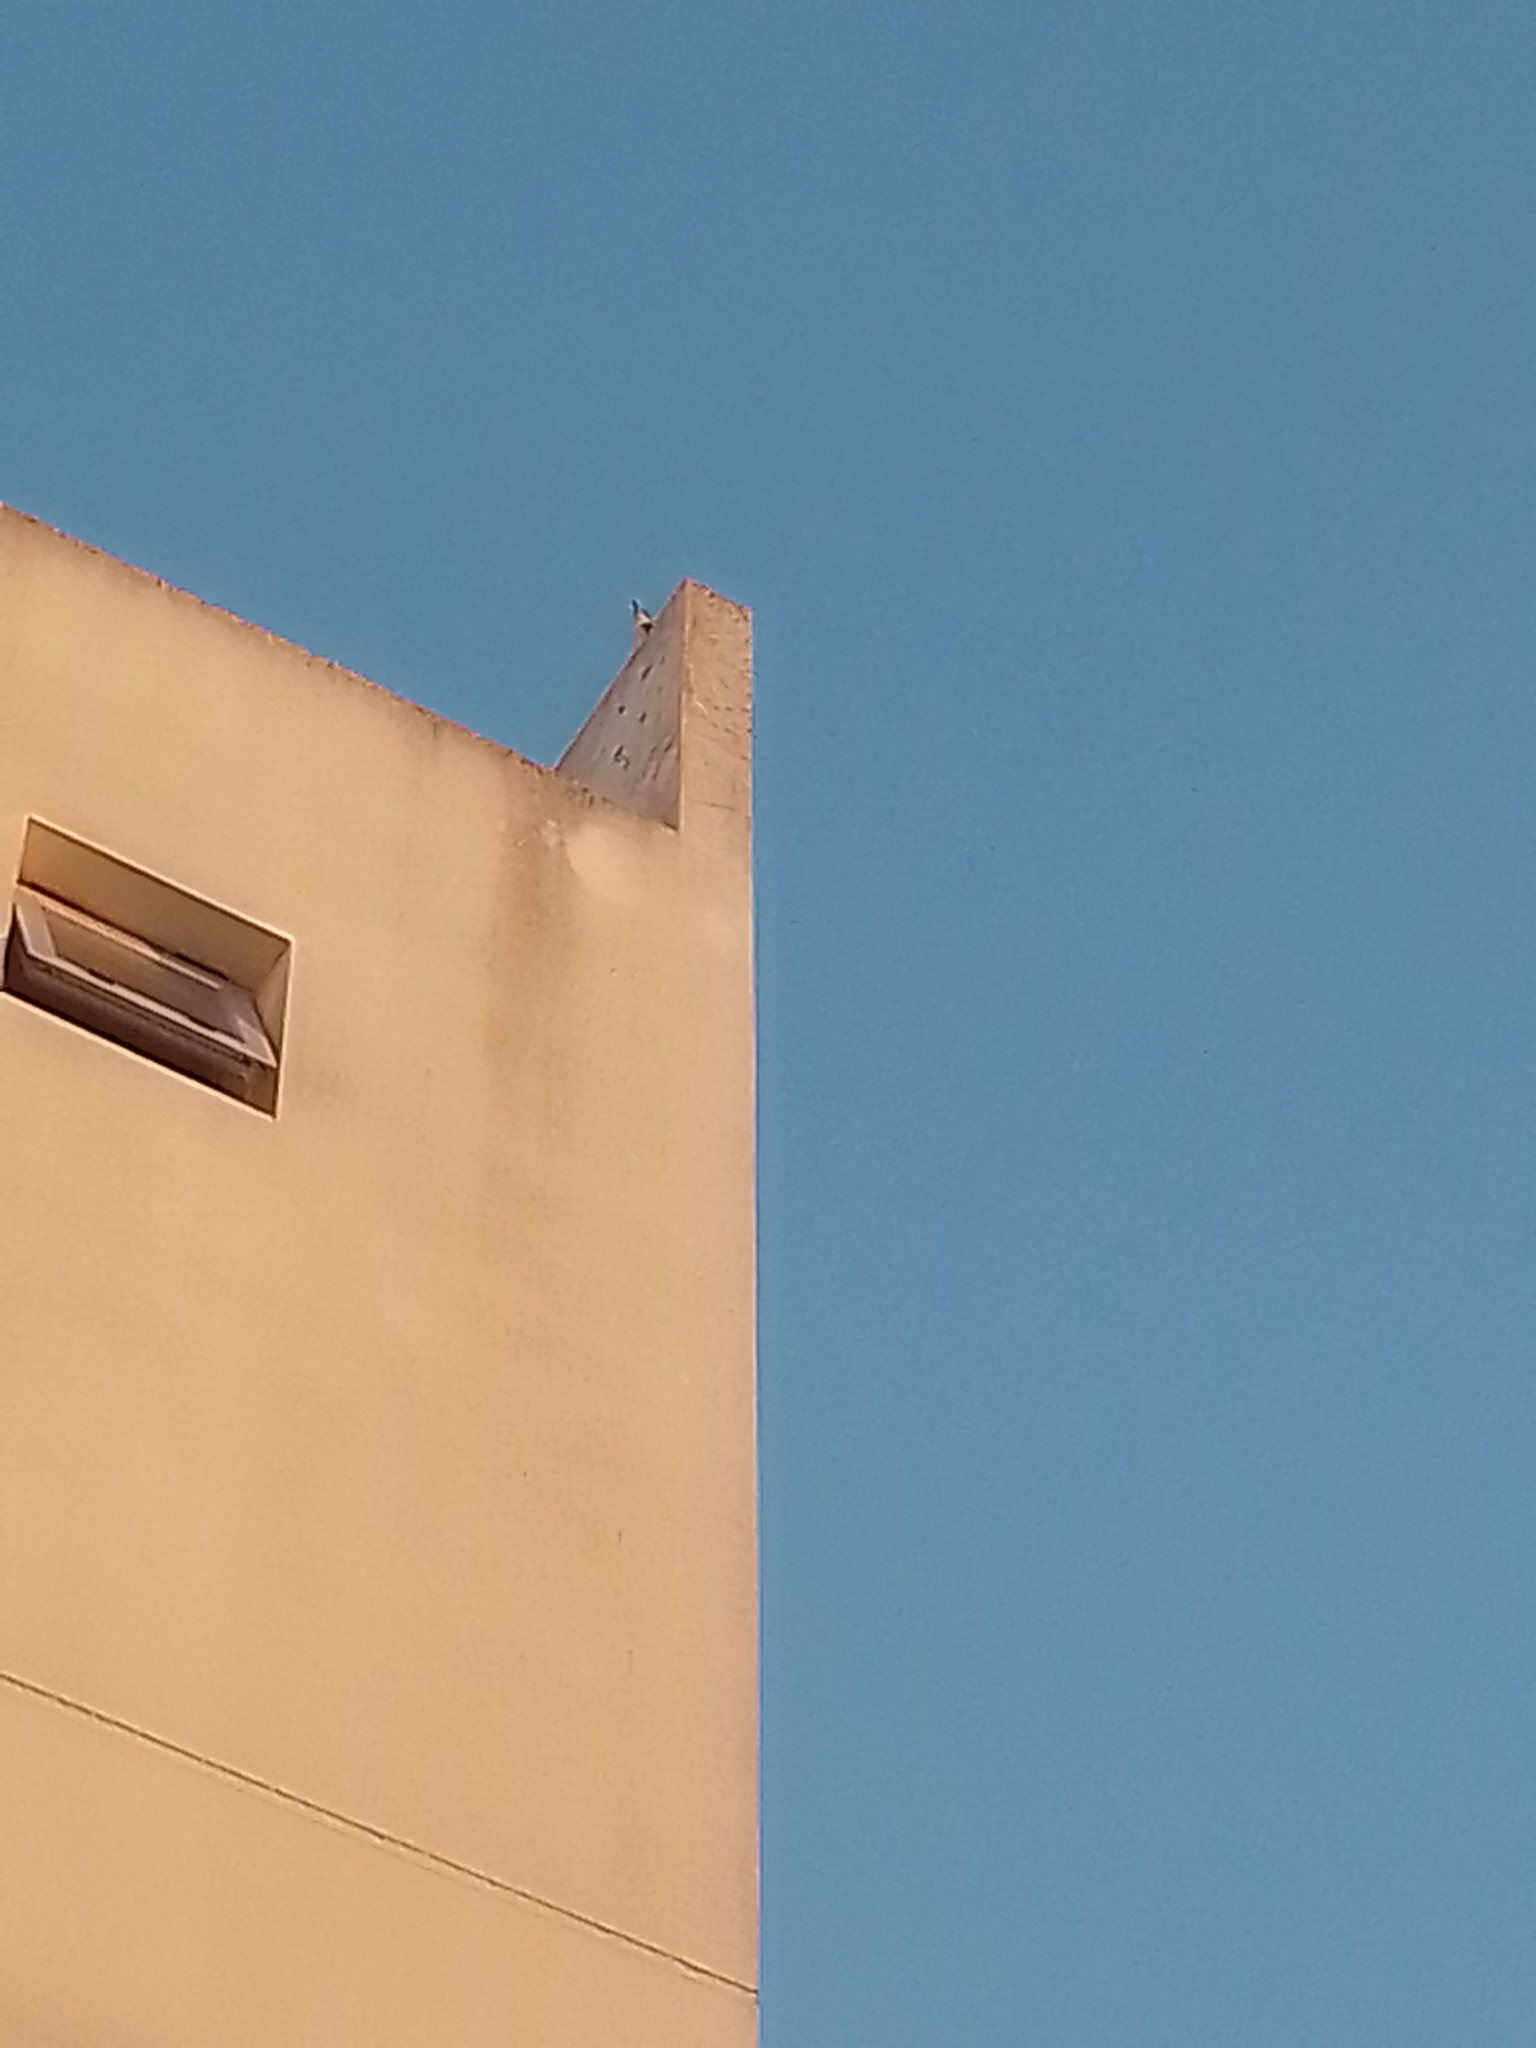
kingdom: Animalia
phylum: Chordata
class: Aves
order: Passeriformes
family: Tyrannidae
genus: Pitangus
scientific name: Pitangus sulphuratus
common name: Great kiskadee
